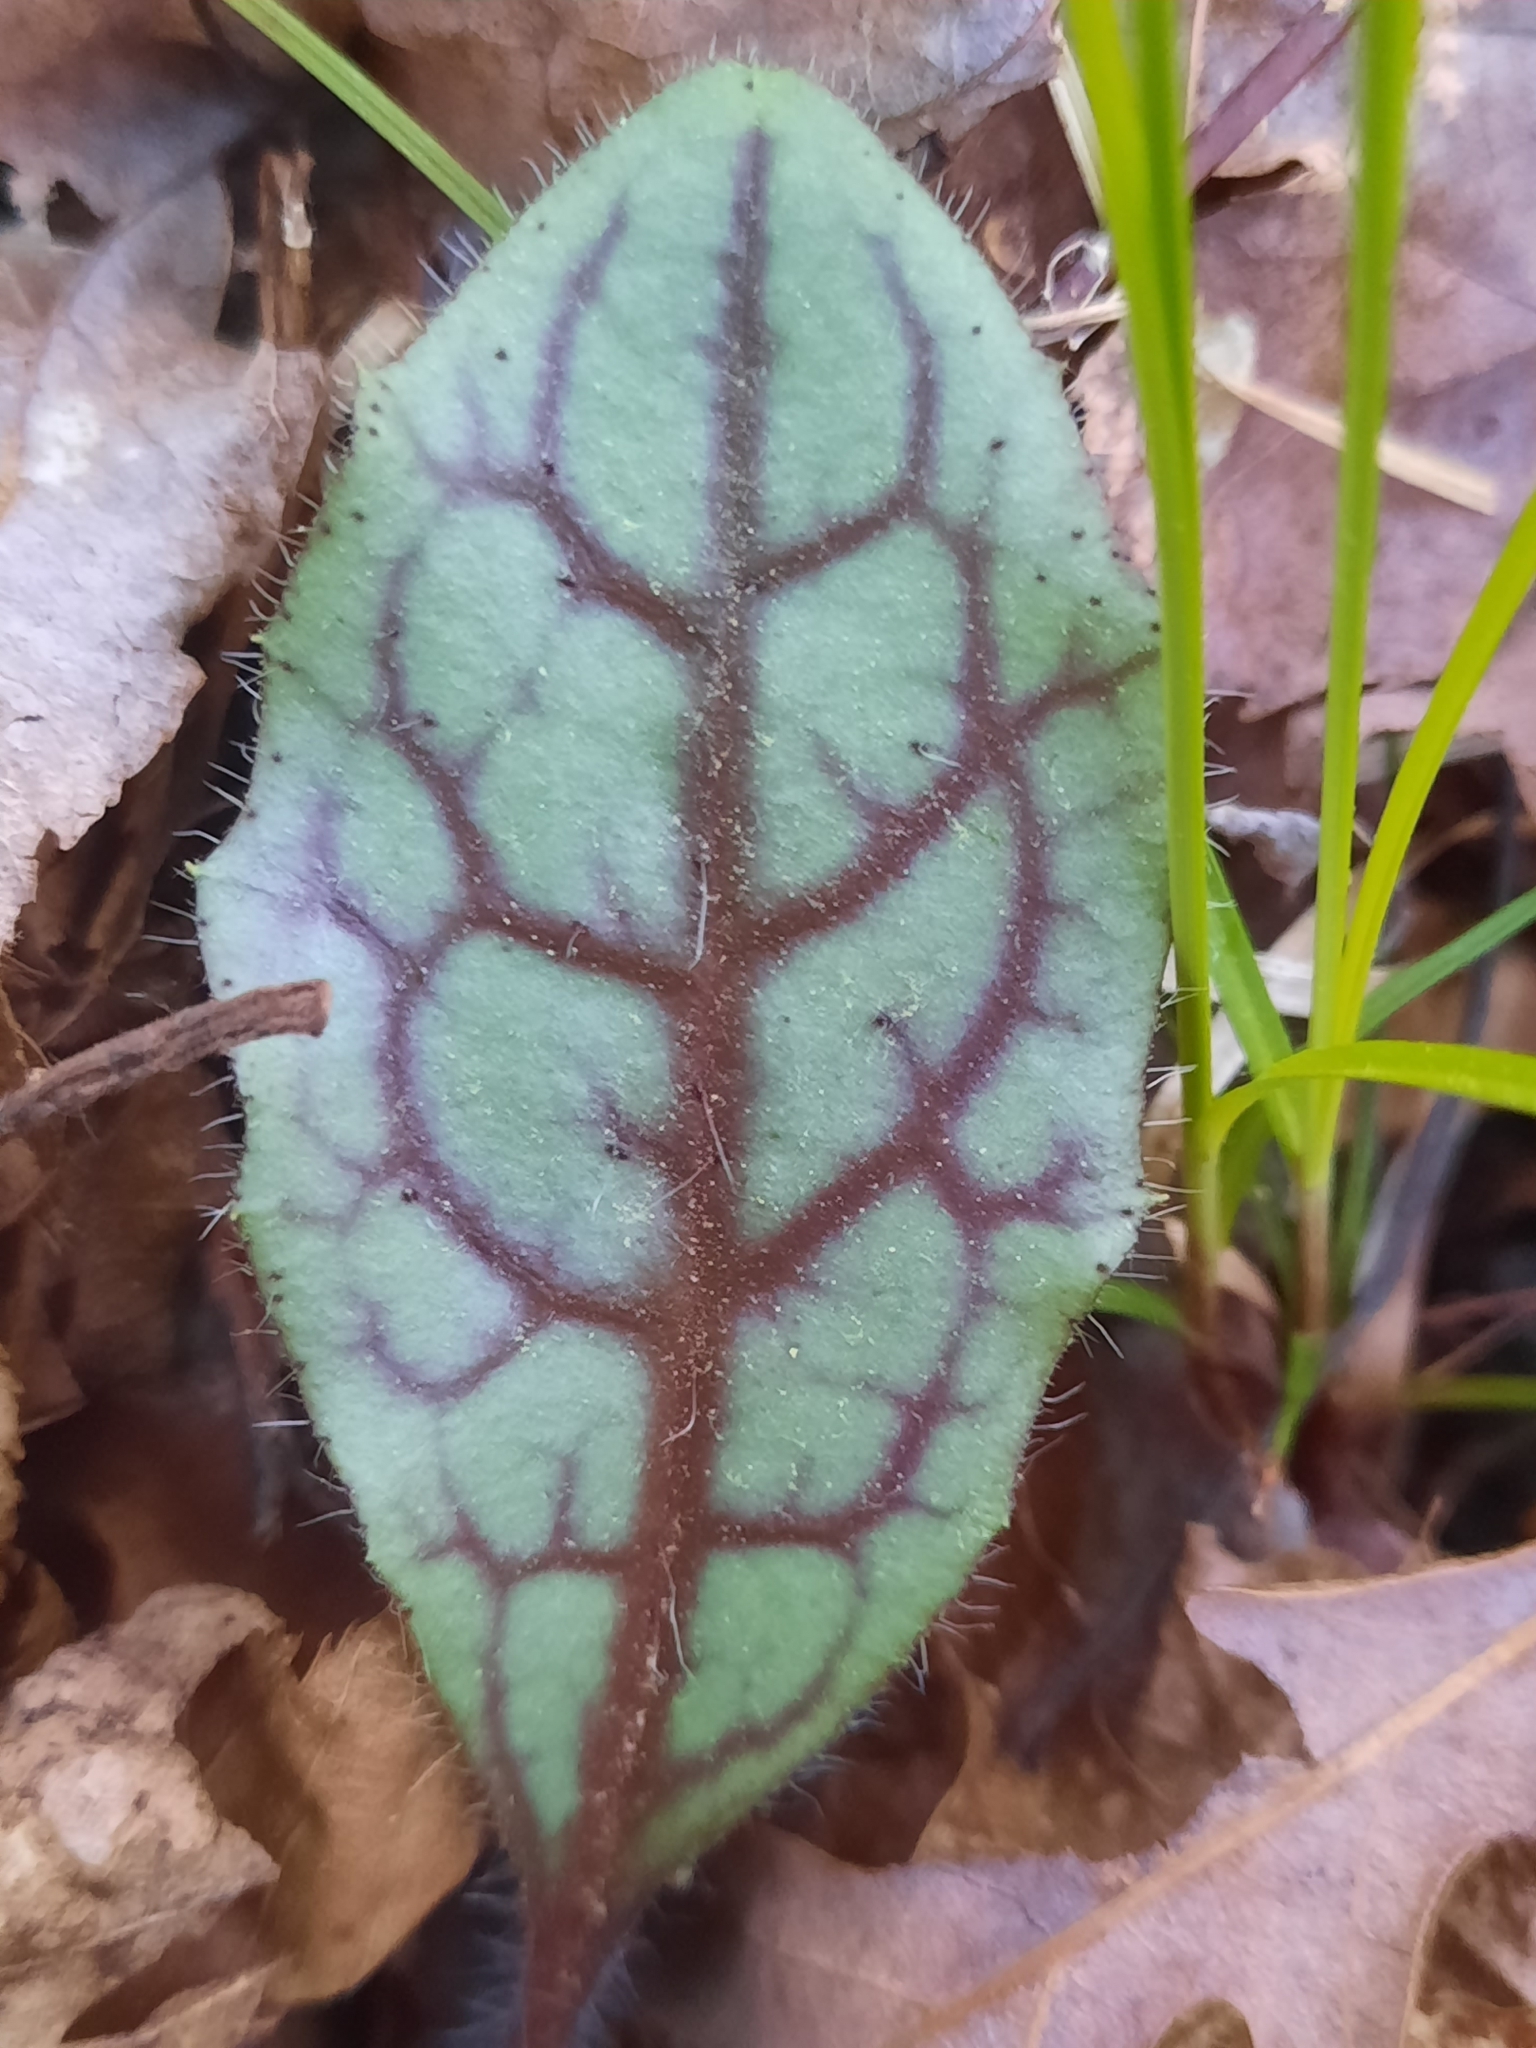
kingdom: Plantae
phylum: Tracheophyta
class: Magnoliopsida
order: Asterales
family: Asteraceae
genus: Hieracium
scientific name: Hieracium venosum
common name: Rattlesnake hawkweed
